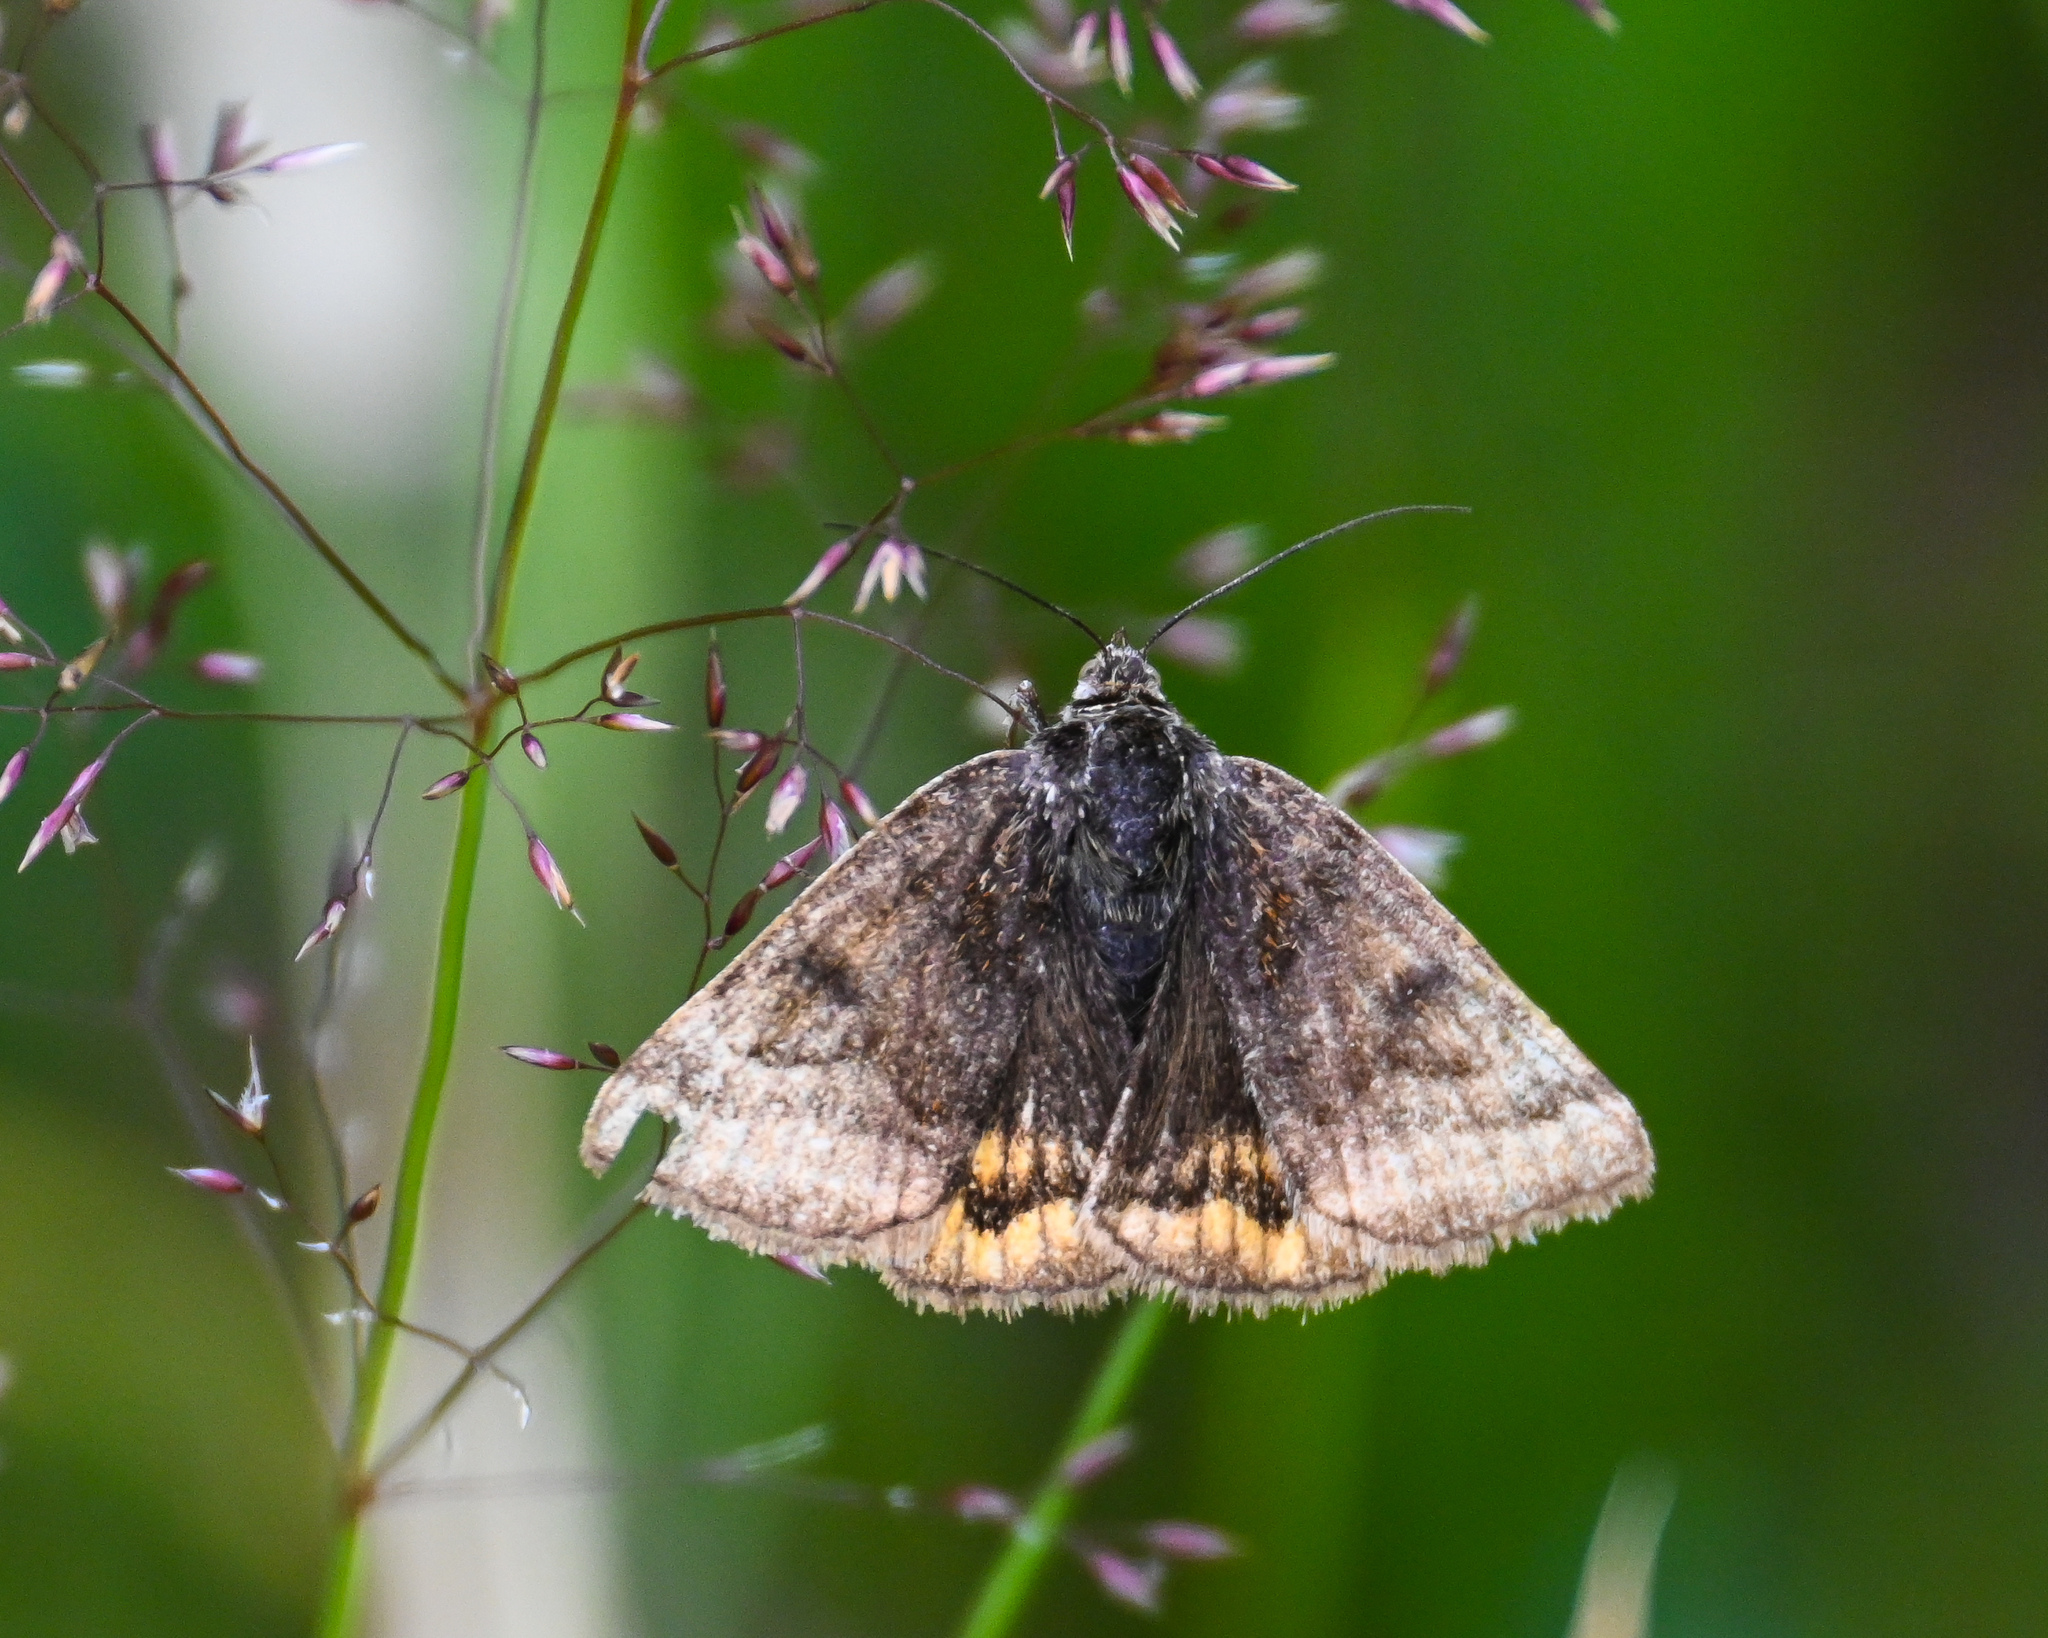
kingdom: Animalia
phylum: Arthropoda
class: Insecta
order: Lepidoptera
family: Erebidae
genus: Euclidia
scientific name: Euclidia glyphica
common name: Burnet companion
